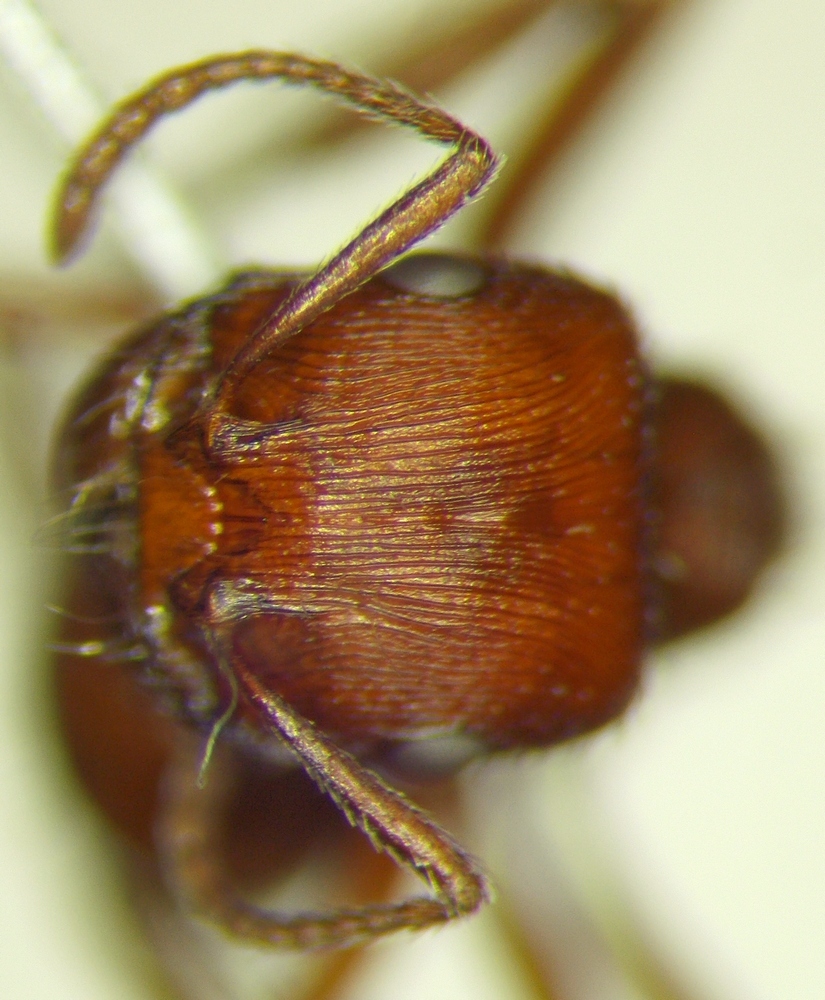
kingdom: Animalia
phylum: Arthropoda
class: Insecta
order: Hymenoptera
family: Formicidae
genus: Pogonomyrmex
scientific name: Pogonomyrmex subnitidus
